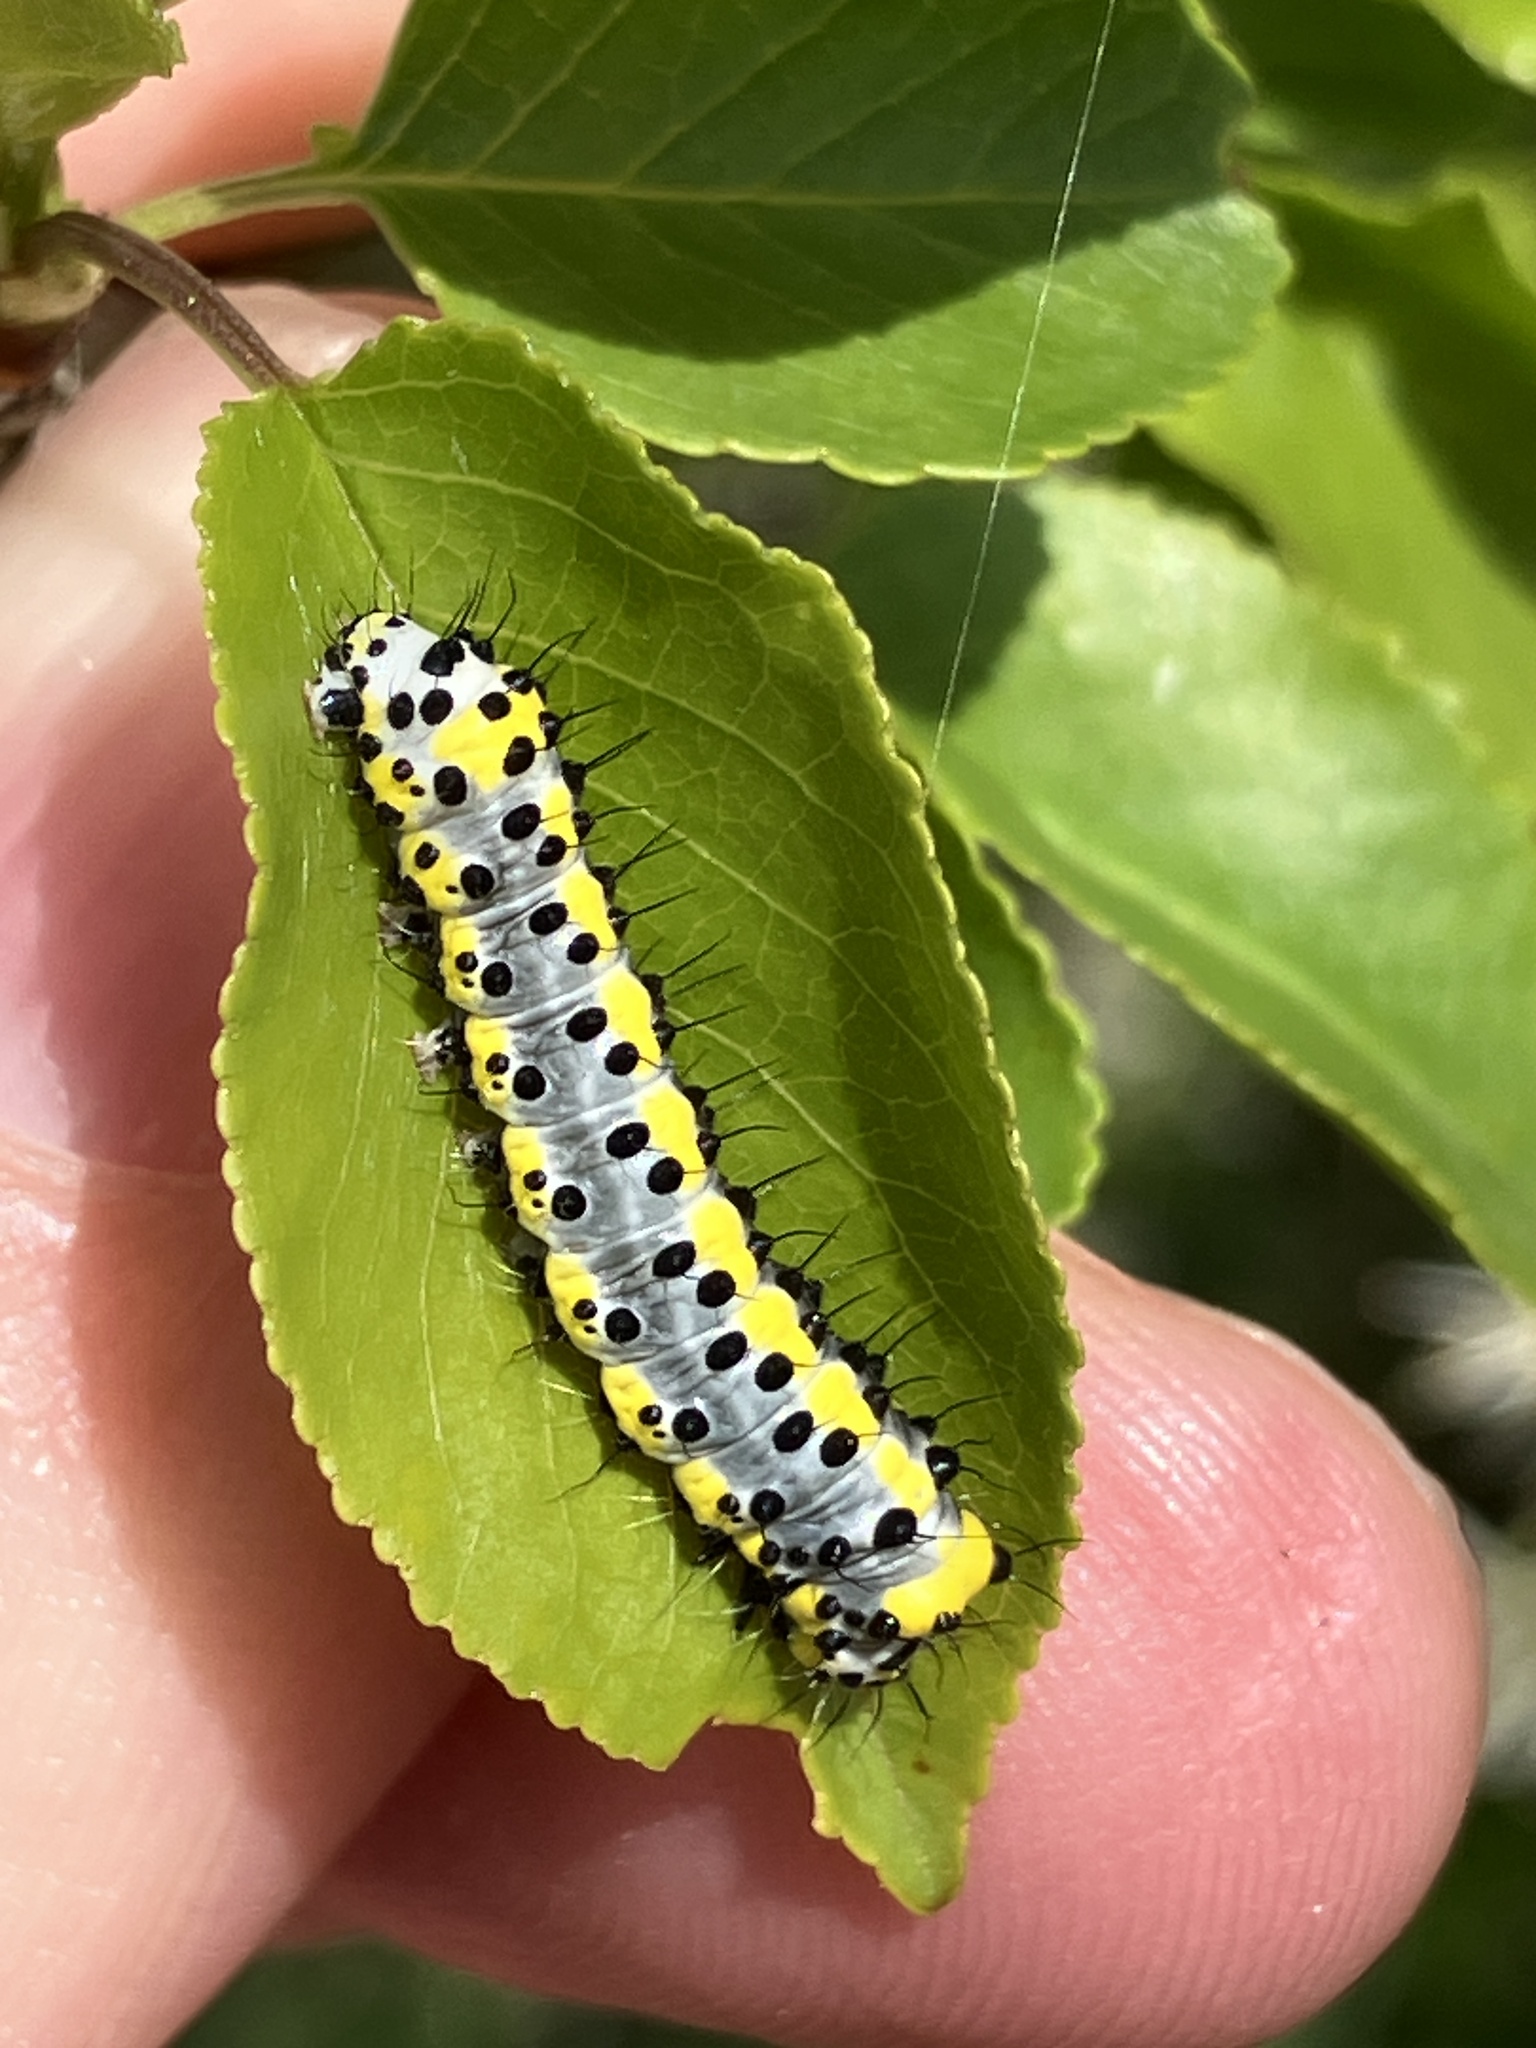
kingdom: Animalia
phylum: Arthropoda
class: Insecta
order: Lepidoptera
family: Noctuidae
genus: Diloba
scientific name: Diloba caeruleocephala
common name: Figure of eight
